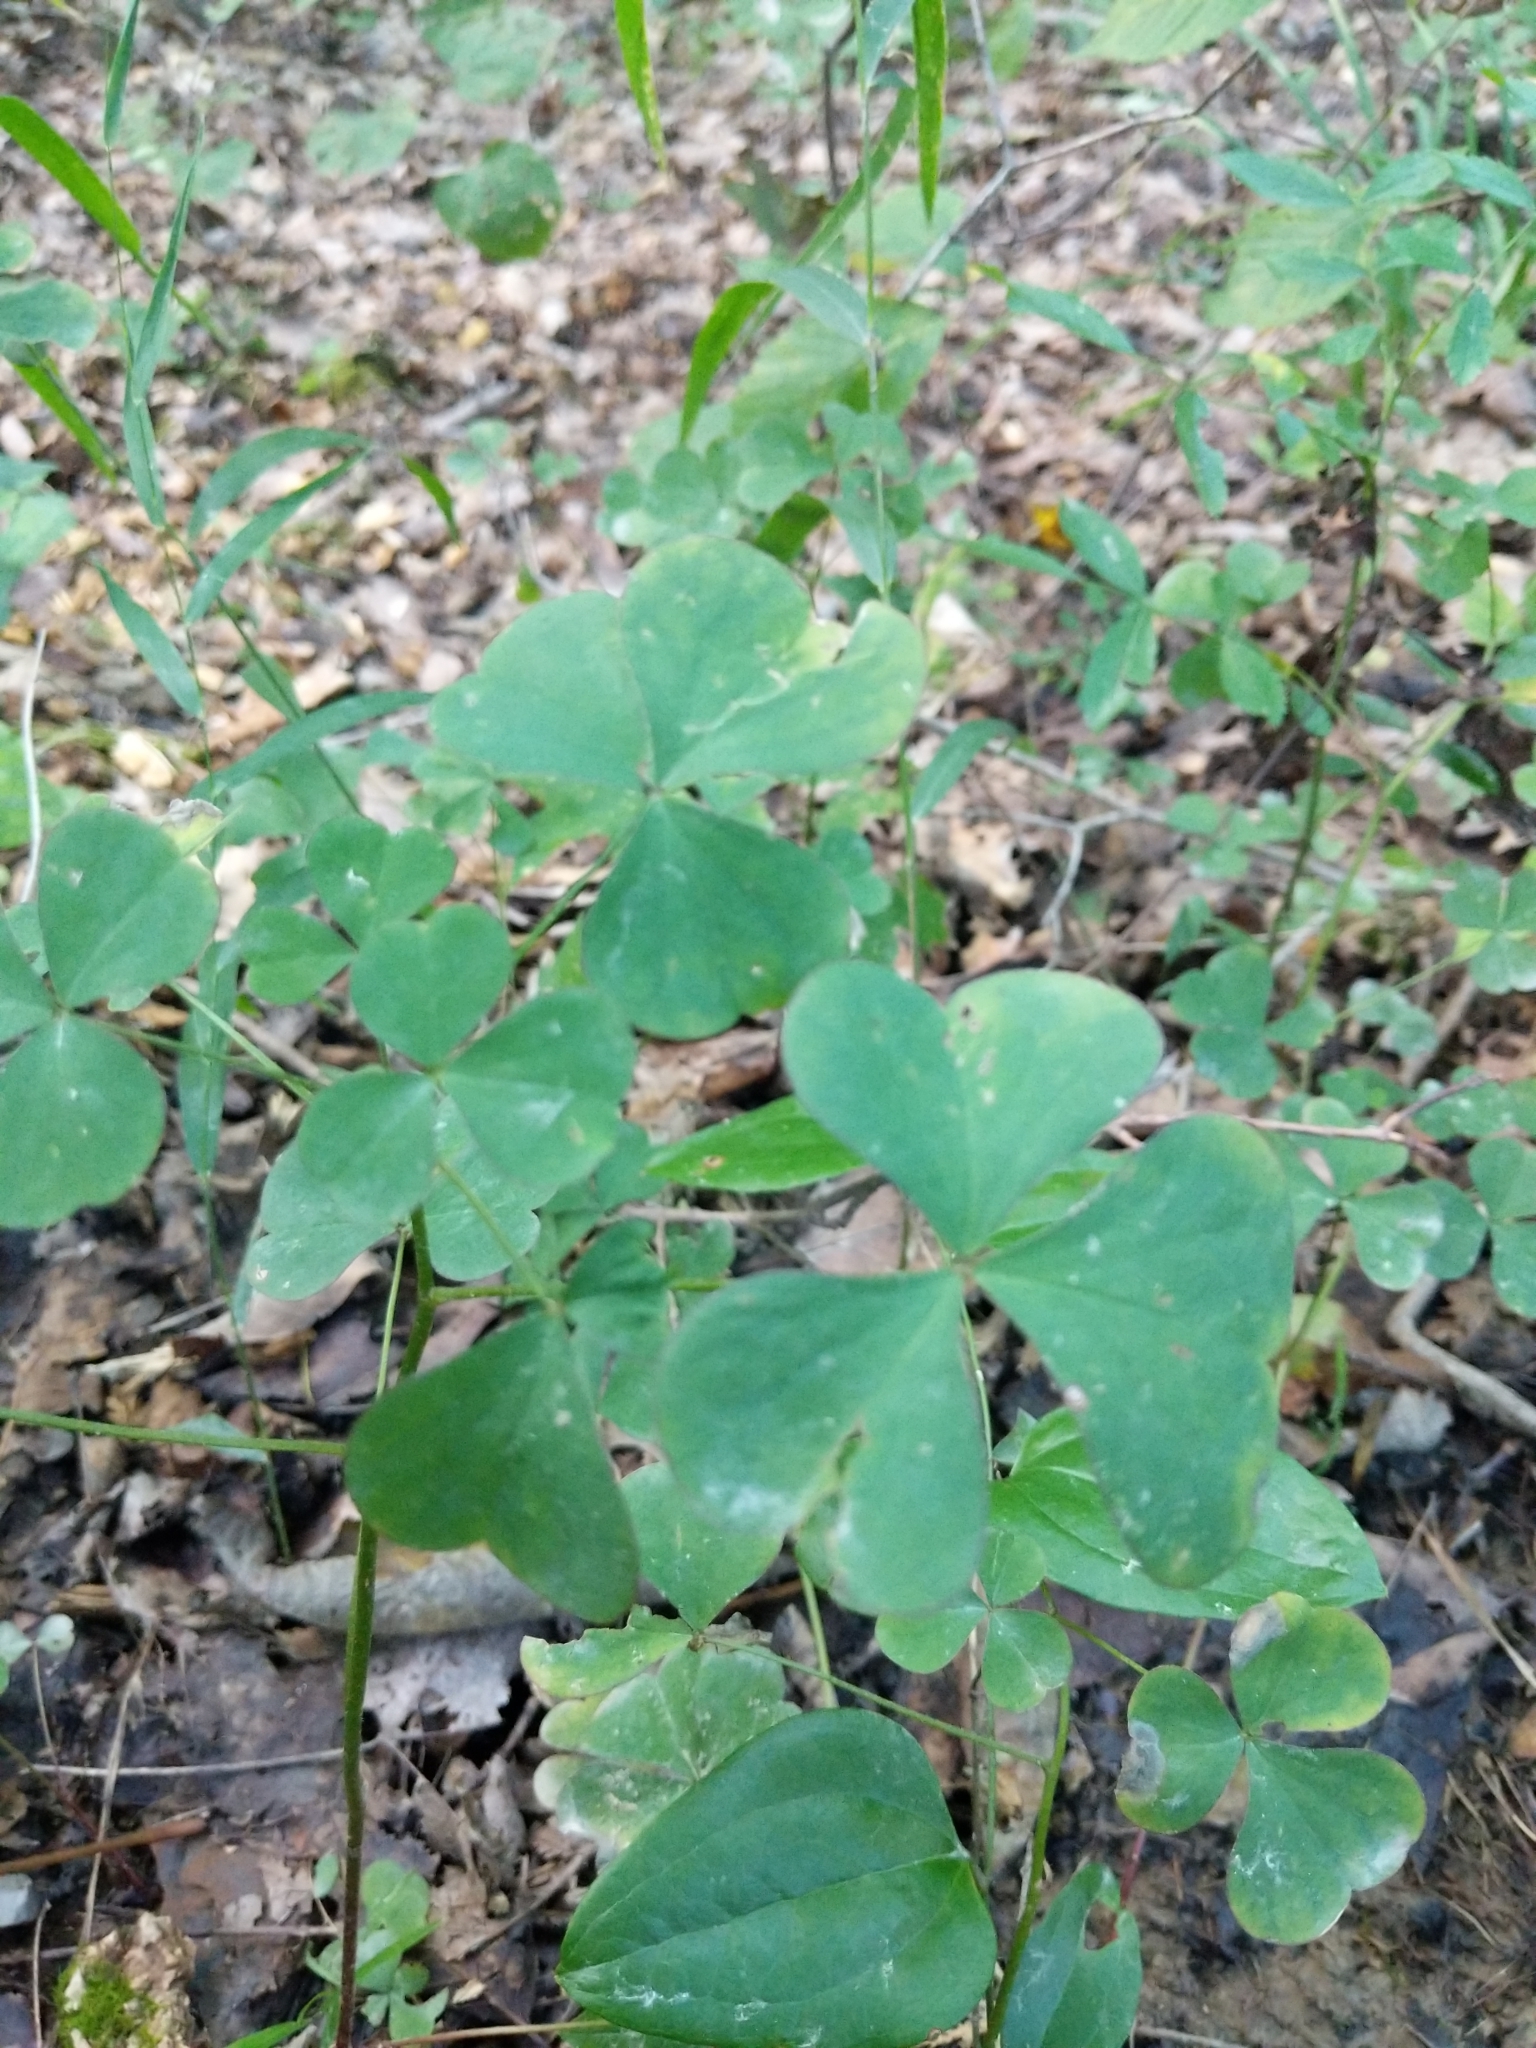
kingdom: Plantae
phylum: Tracheophyta
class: Magnoliopsida
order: Oxalidales
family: Oxalidaceae
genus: Oxalis
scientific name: Oxalis grandis
